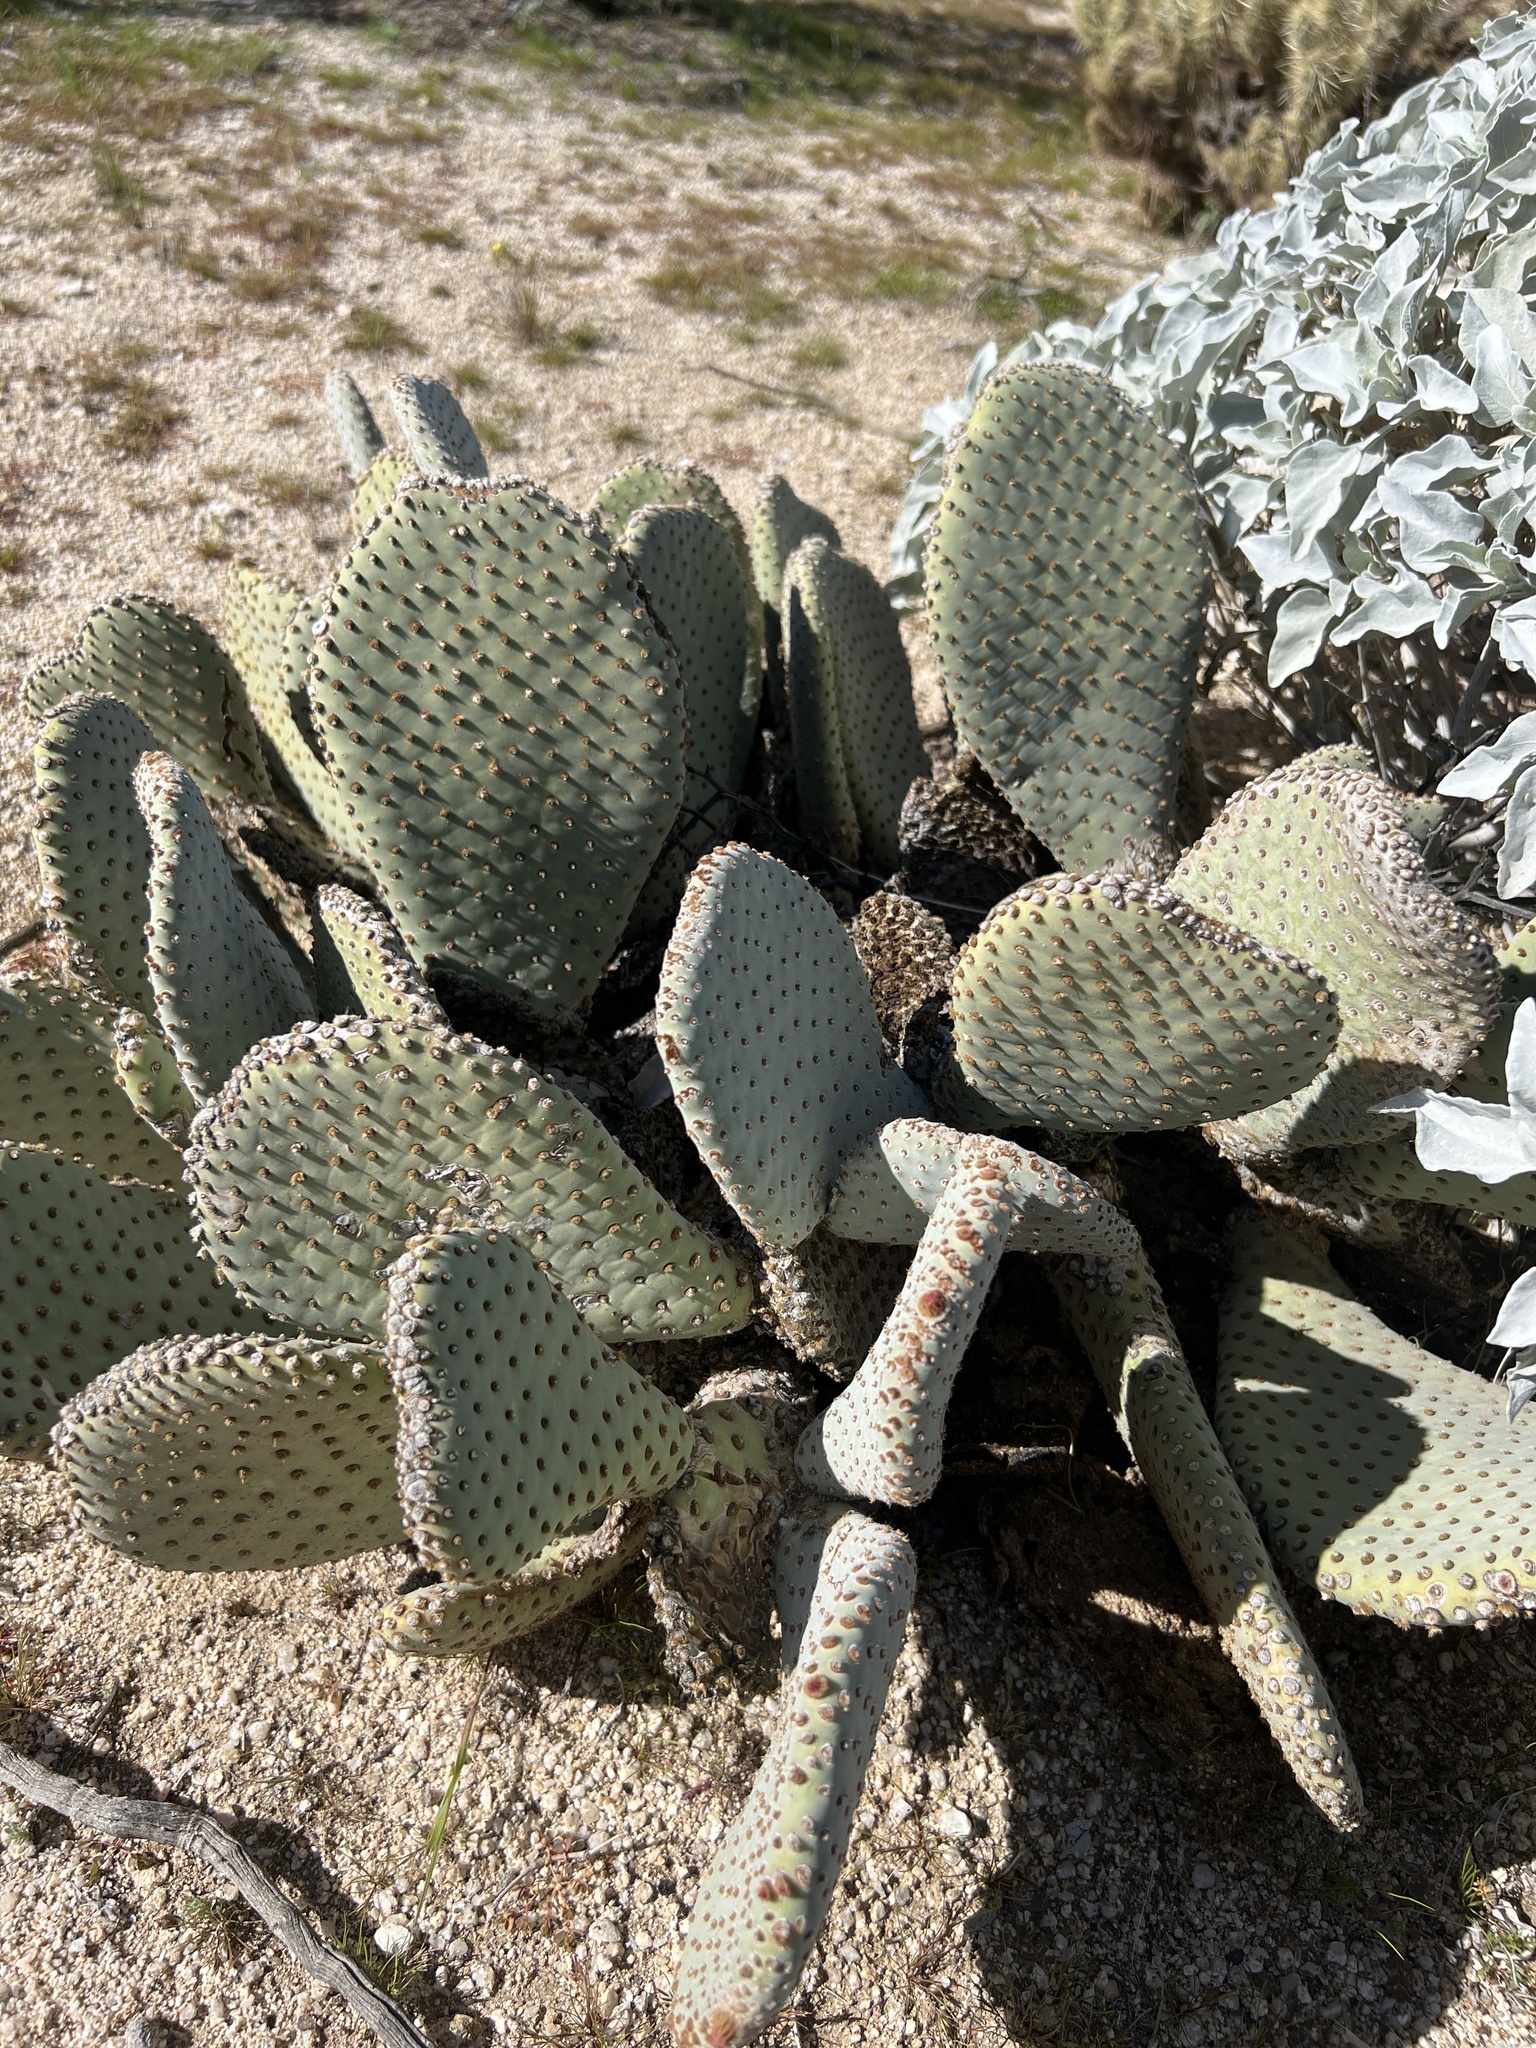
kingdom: Plantae
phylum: Tracheophyta
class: Magnoliopsida
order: Caryophyllales
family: Cactaceae
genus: Opuntia
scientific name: Opuntia basilaris
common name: Beavertail prickly-pear
